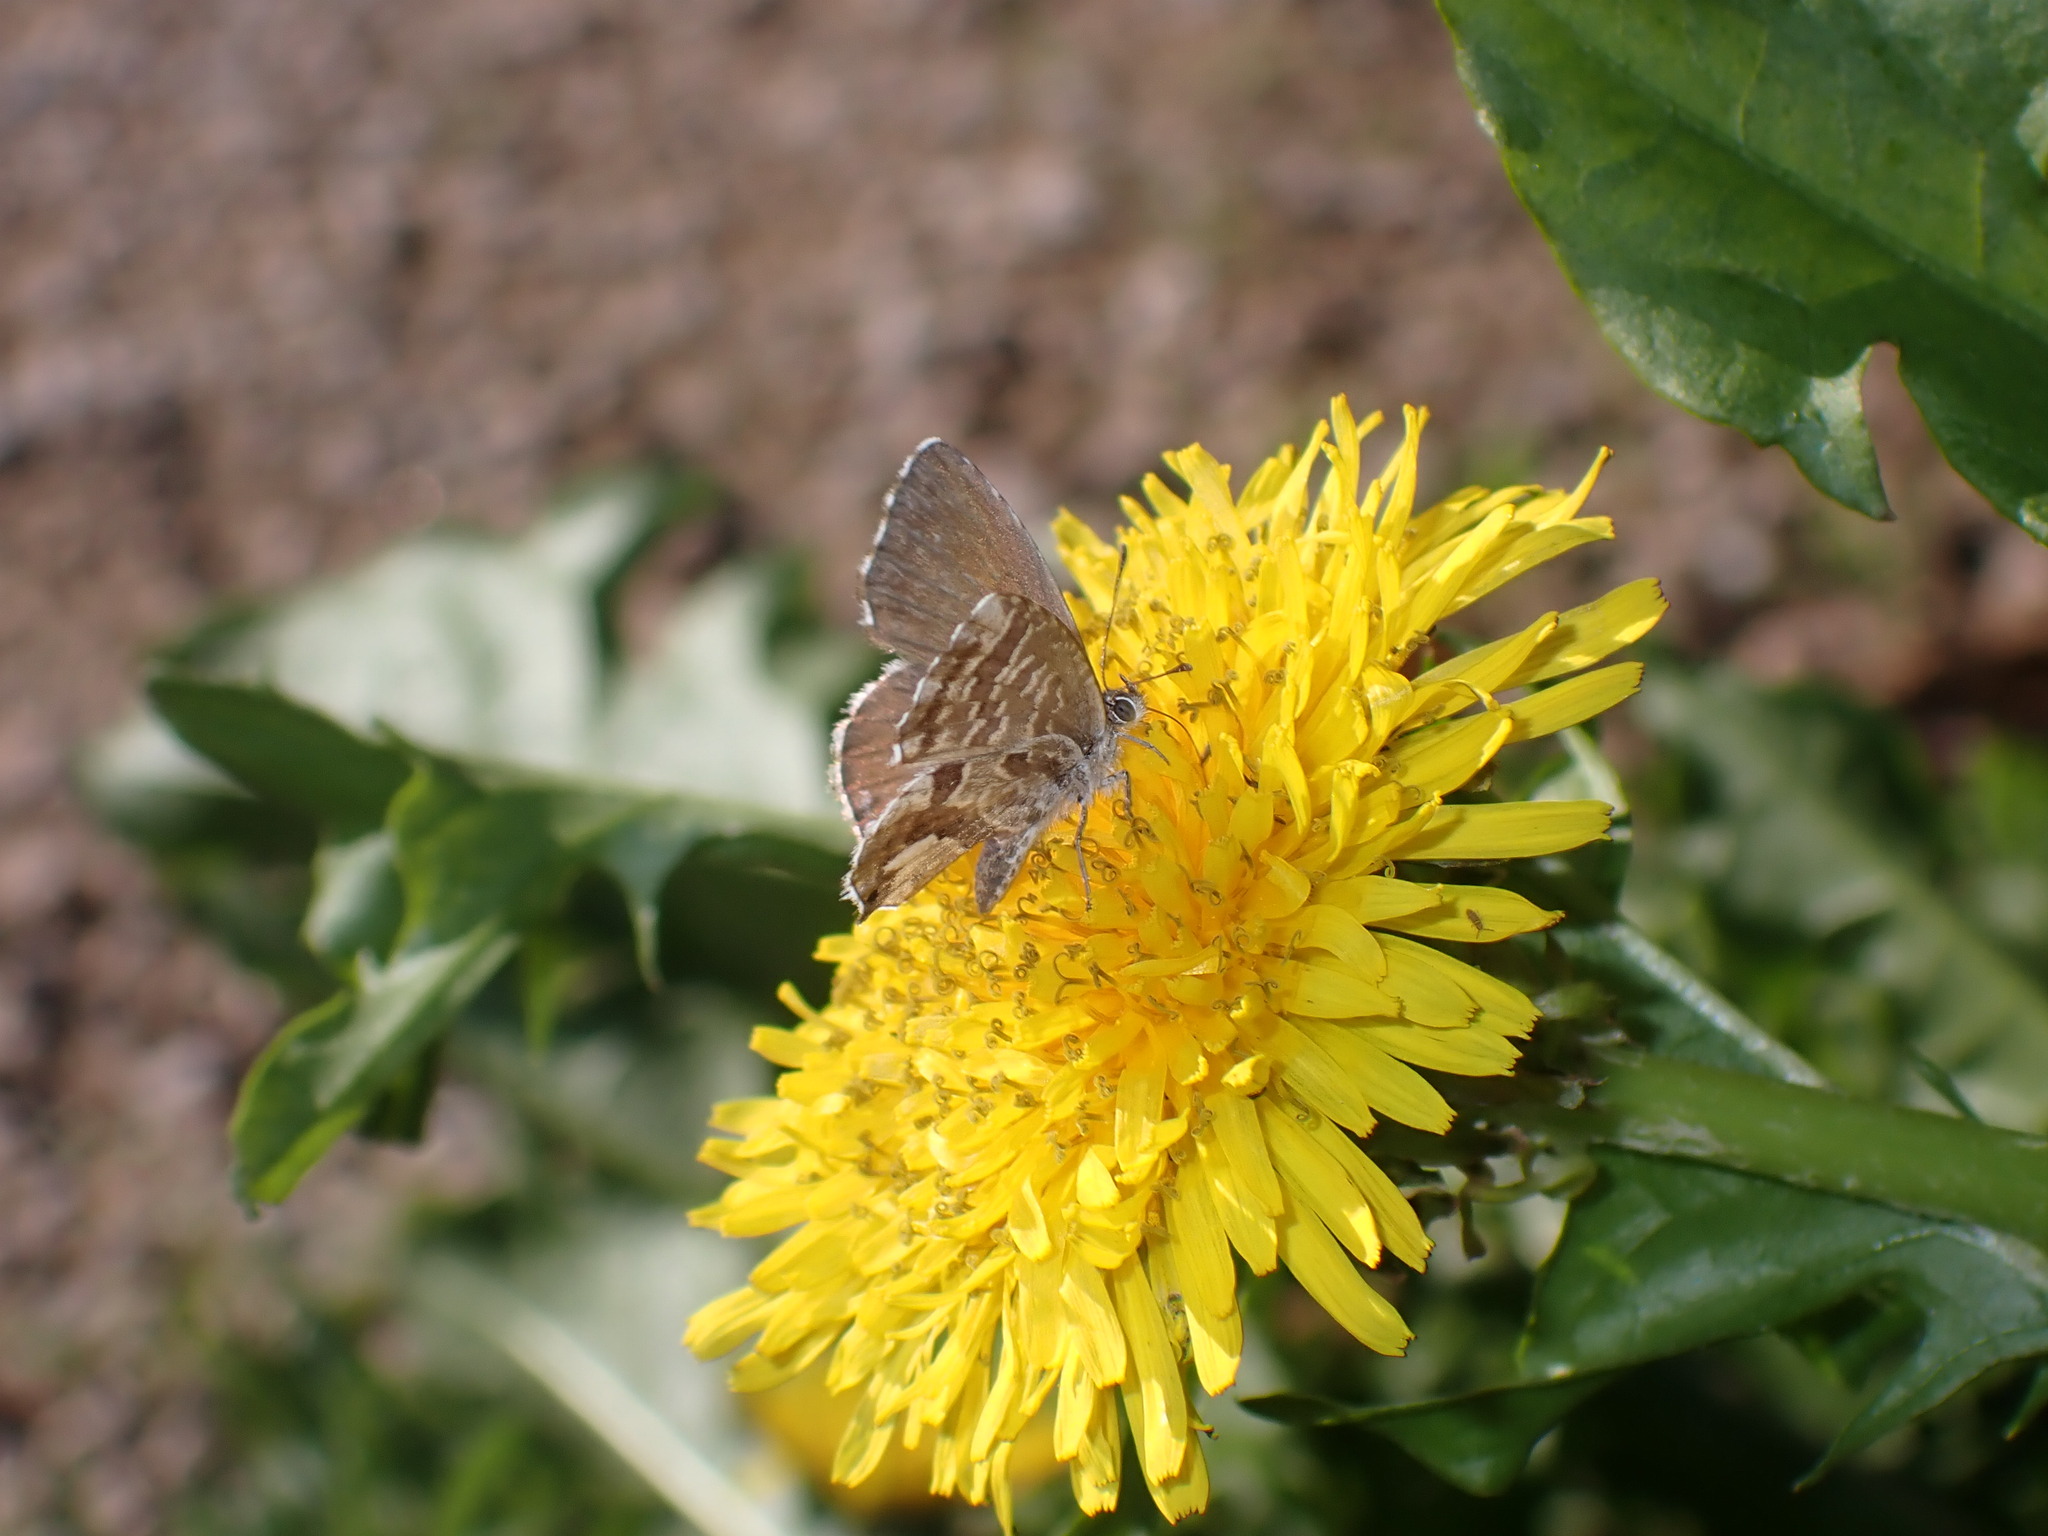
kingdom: Animalia
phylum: Arthropoda
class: Insecta
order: Lepidoptera
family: Lycaenidae
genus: Cacyreus
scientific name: Cacyreus marshalli
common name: Geranium bronze
